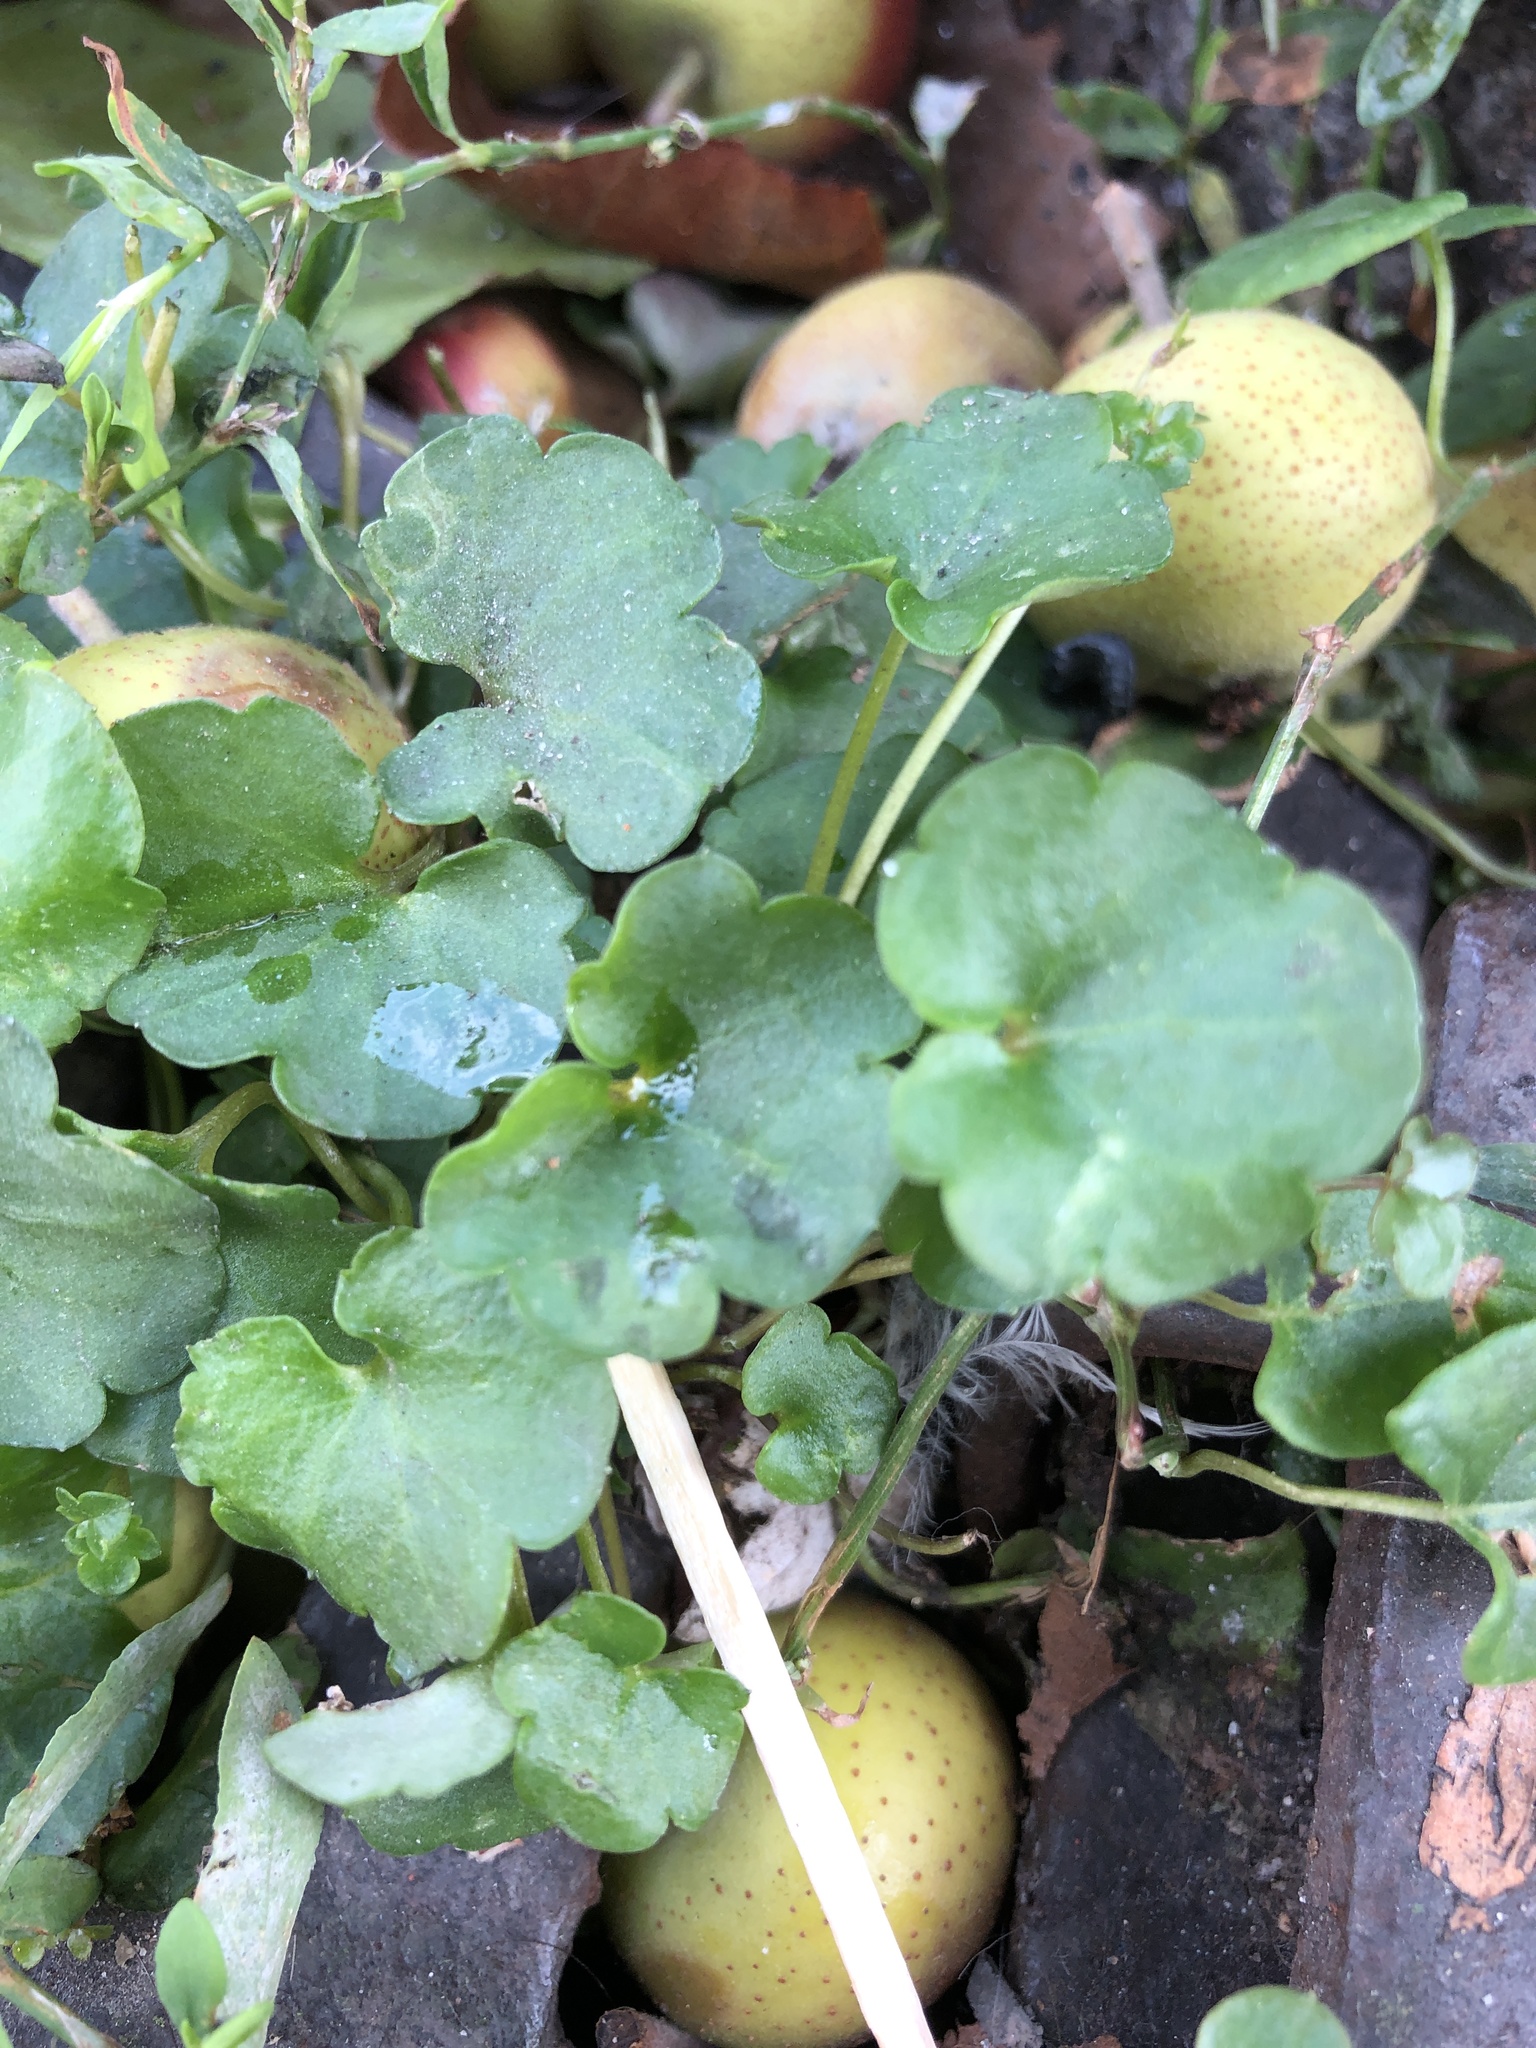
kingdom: Plantae
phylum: Tracheophyta
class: Magnoliopsida
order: Lamiales
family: Plantaginaceae
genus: Cymbalaria
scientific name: Cymbalaria muralis
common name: Ivy-leaved toadflax
